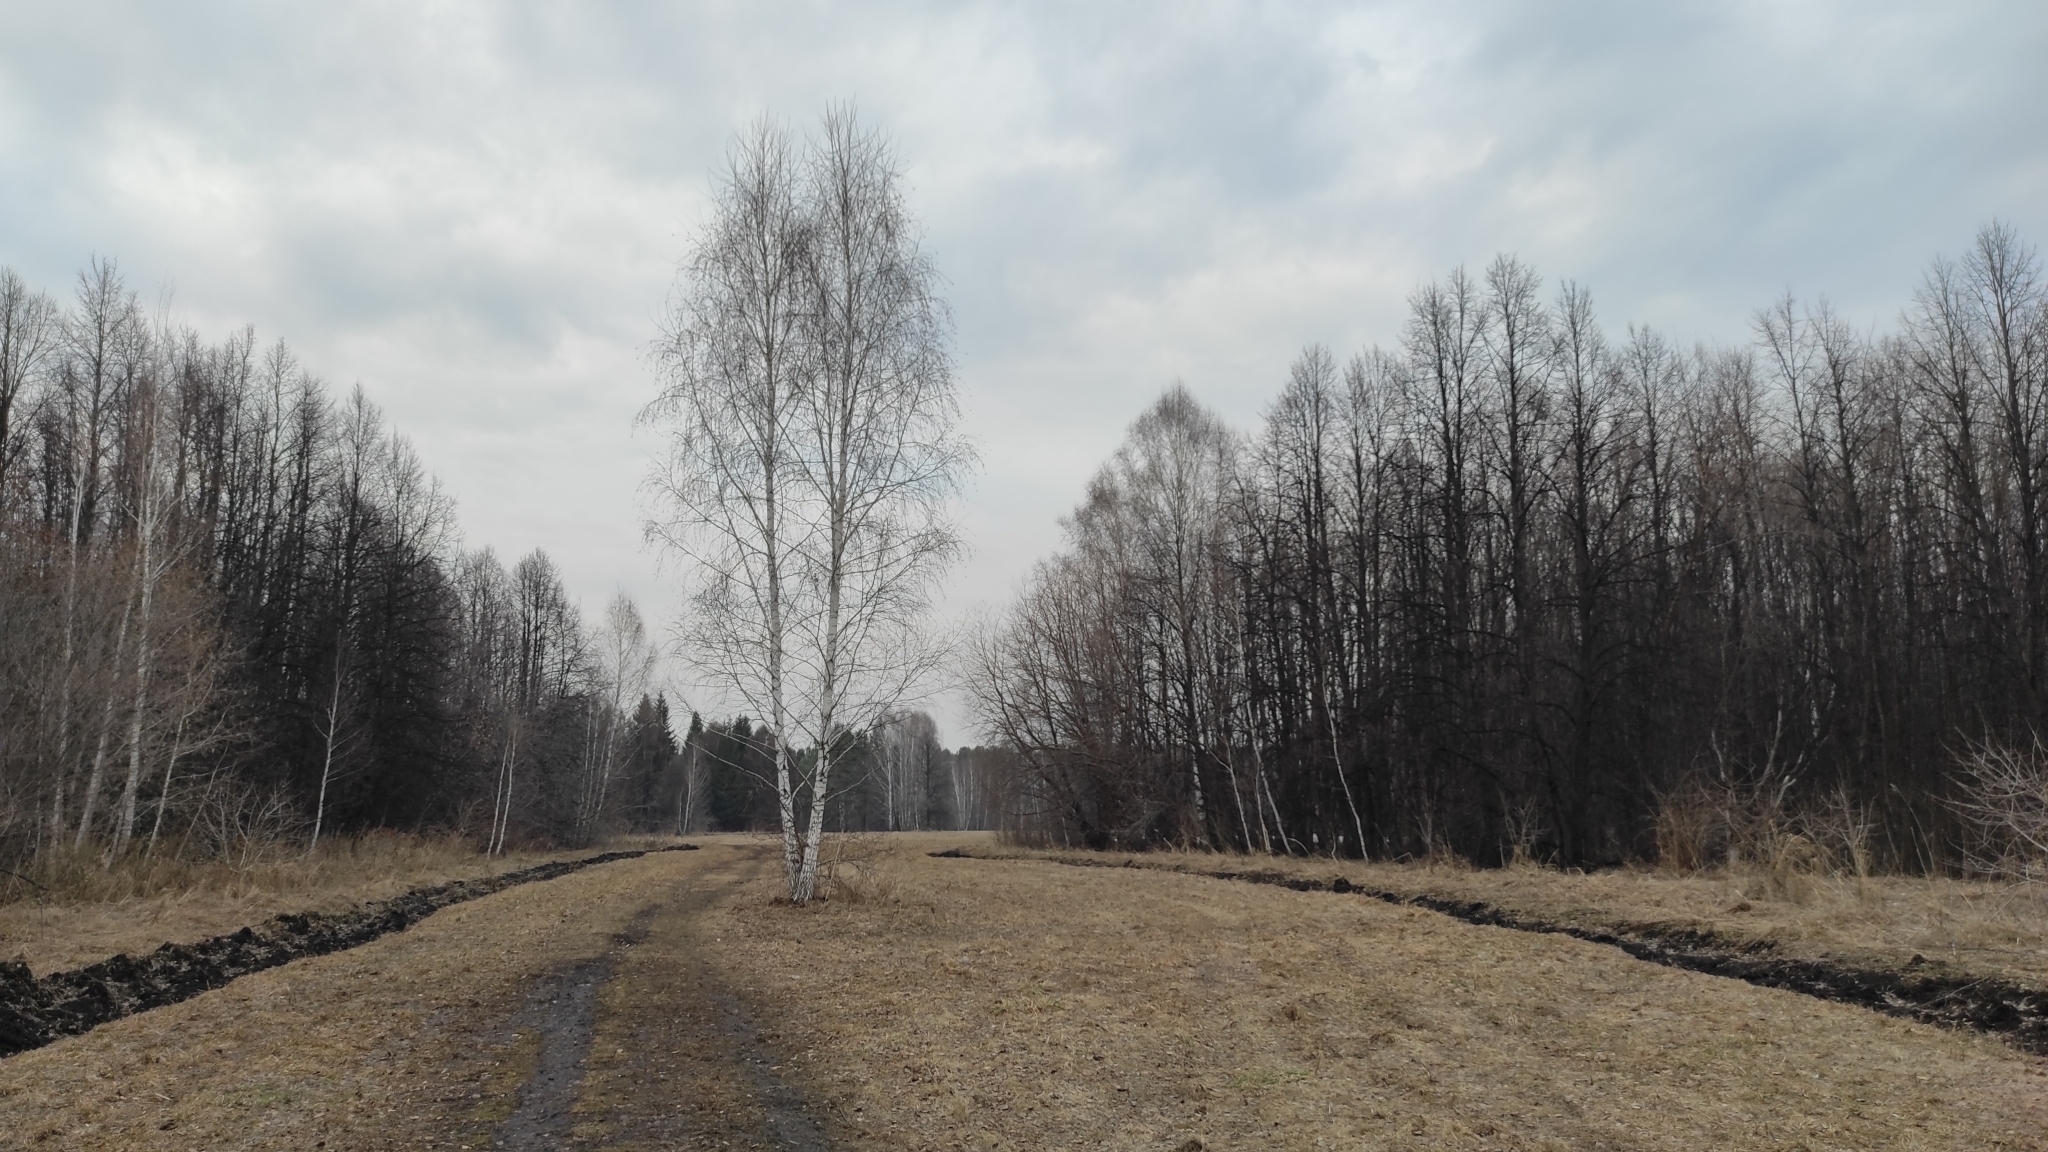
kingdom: Plantae
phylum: Tracheophyta
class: Magnoliopsida
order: Fagales
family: Betulaceae
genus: Betula
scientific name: Betula pendula
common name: Silver birch
